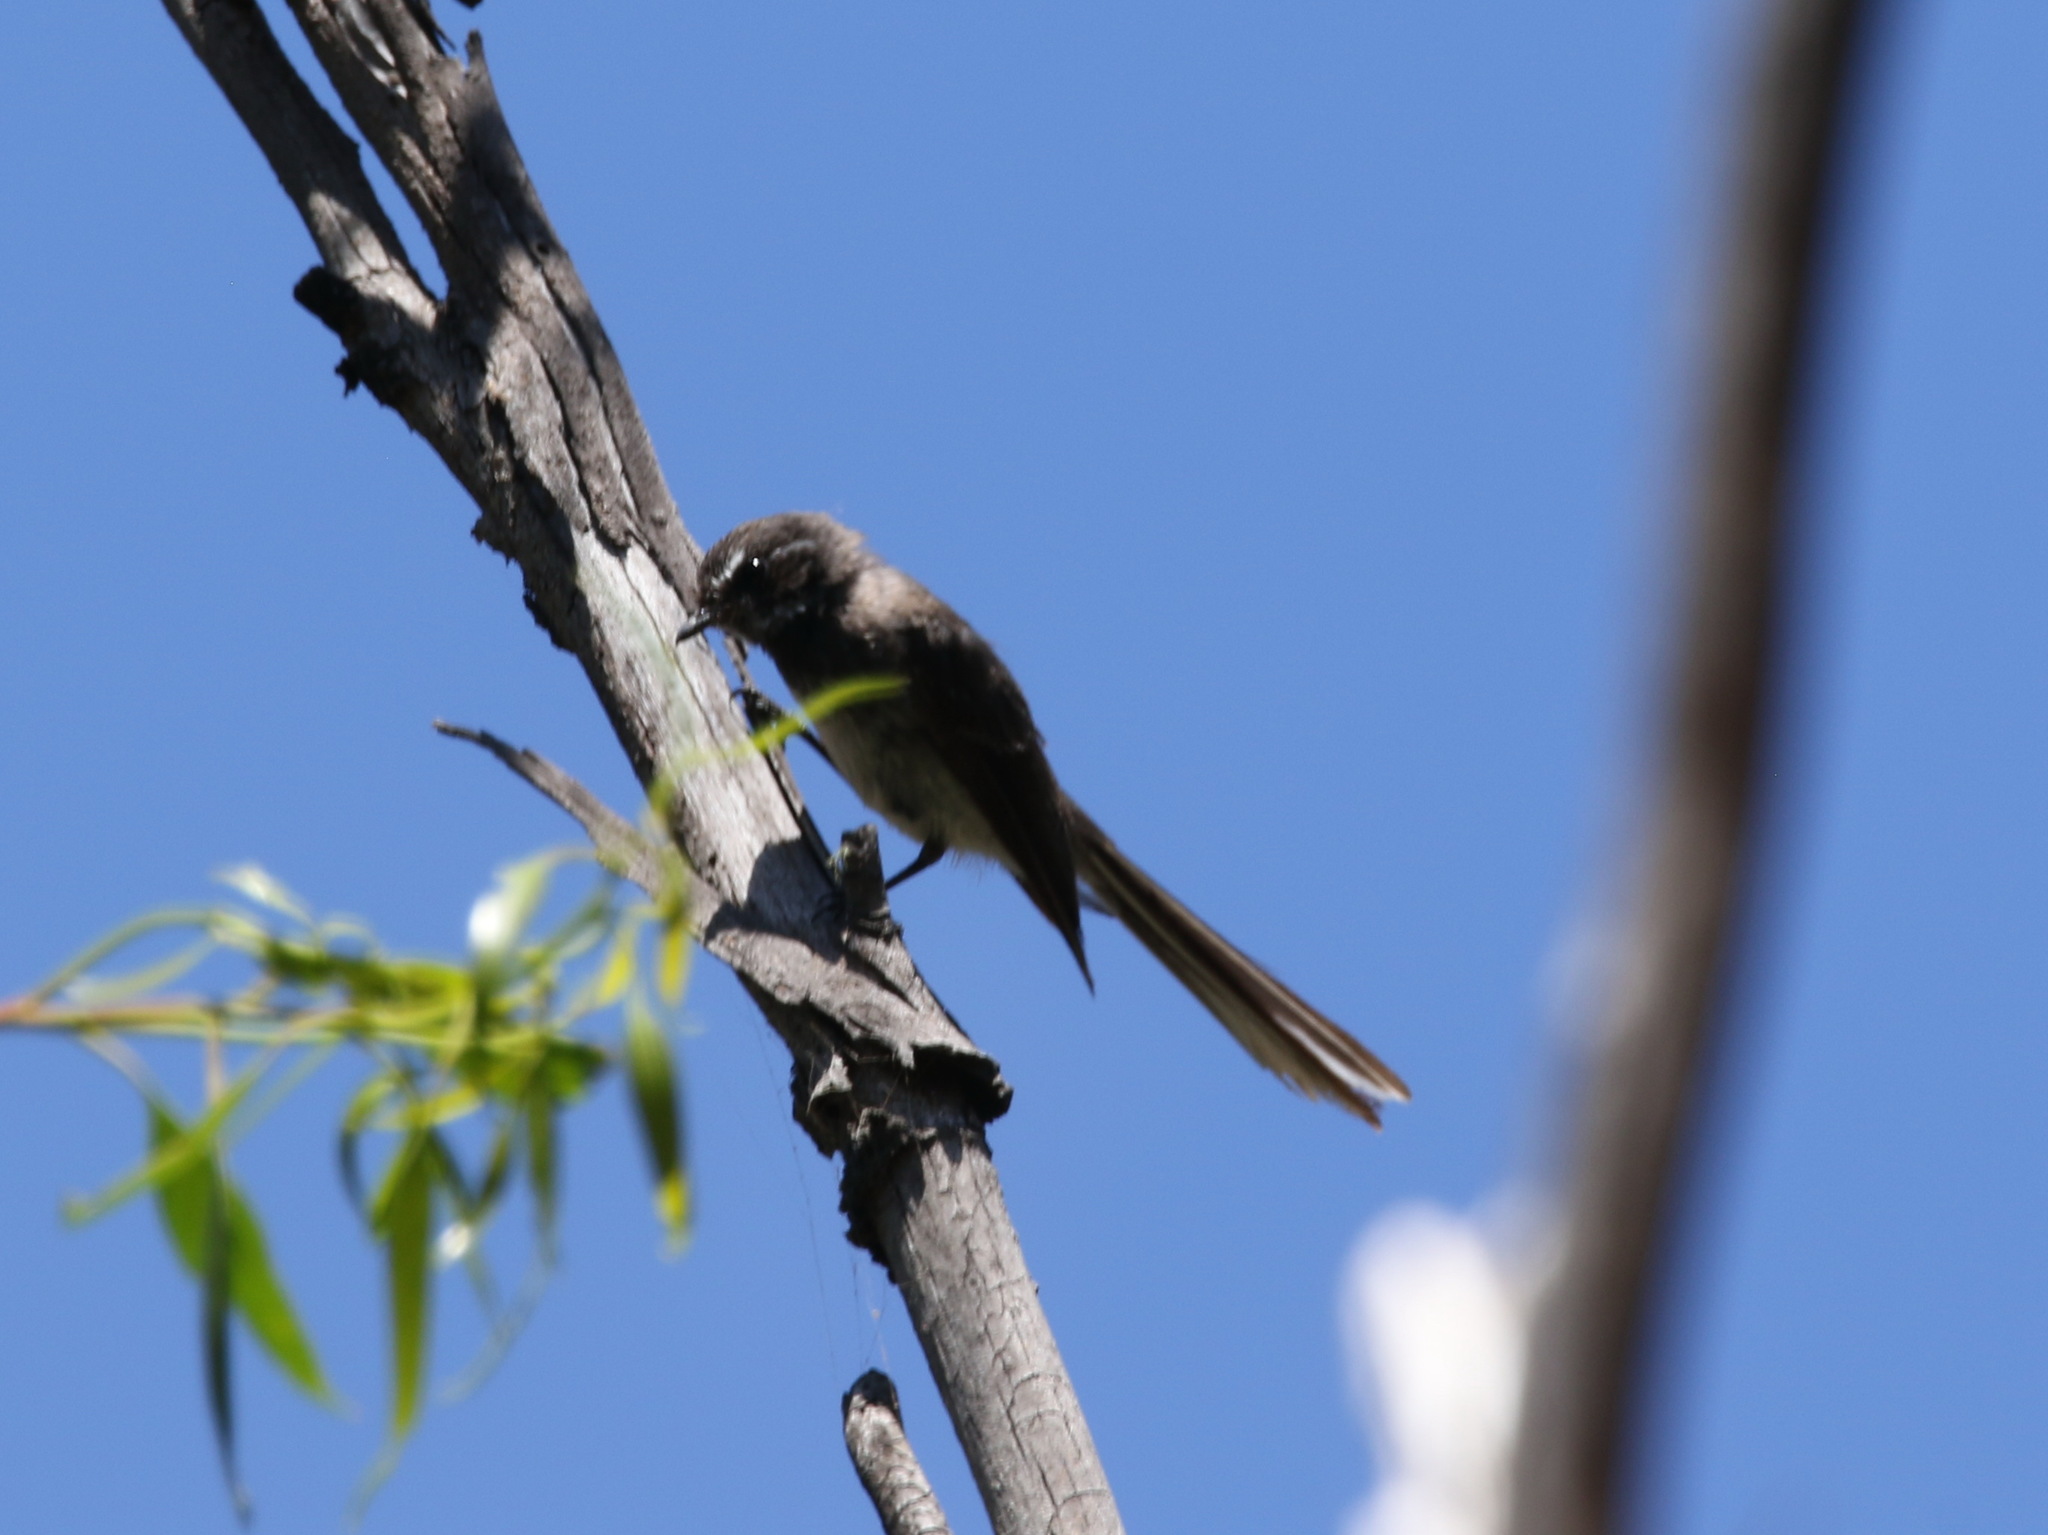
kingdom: Animalia
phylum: Chordata
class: Aves
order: Passeriformes
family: Rhipiduridae
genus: Rhipidura
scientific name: Rhipidura albiscapa
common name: Grey fantail
